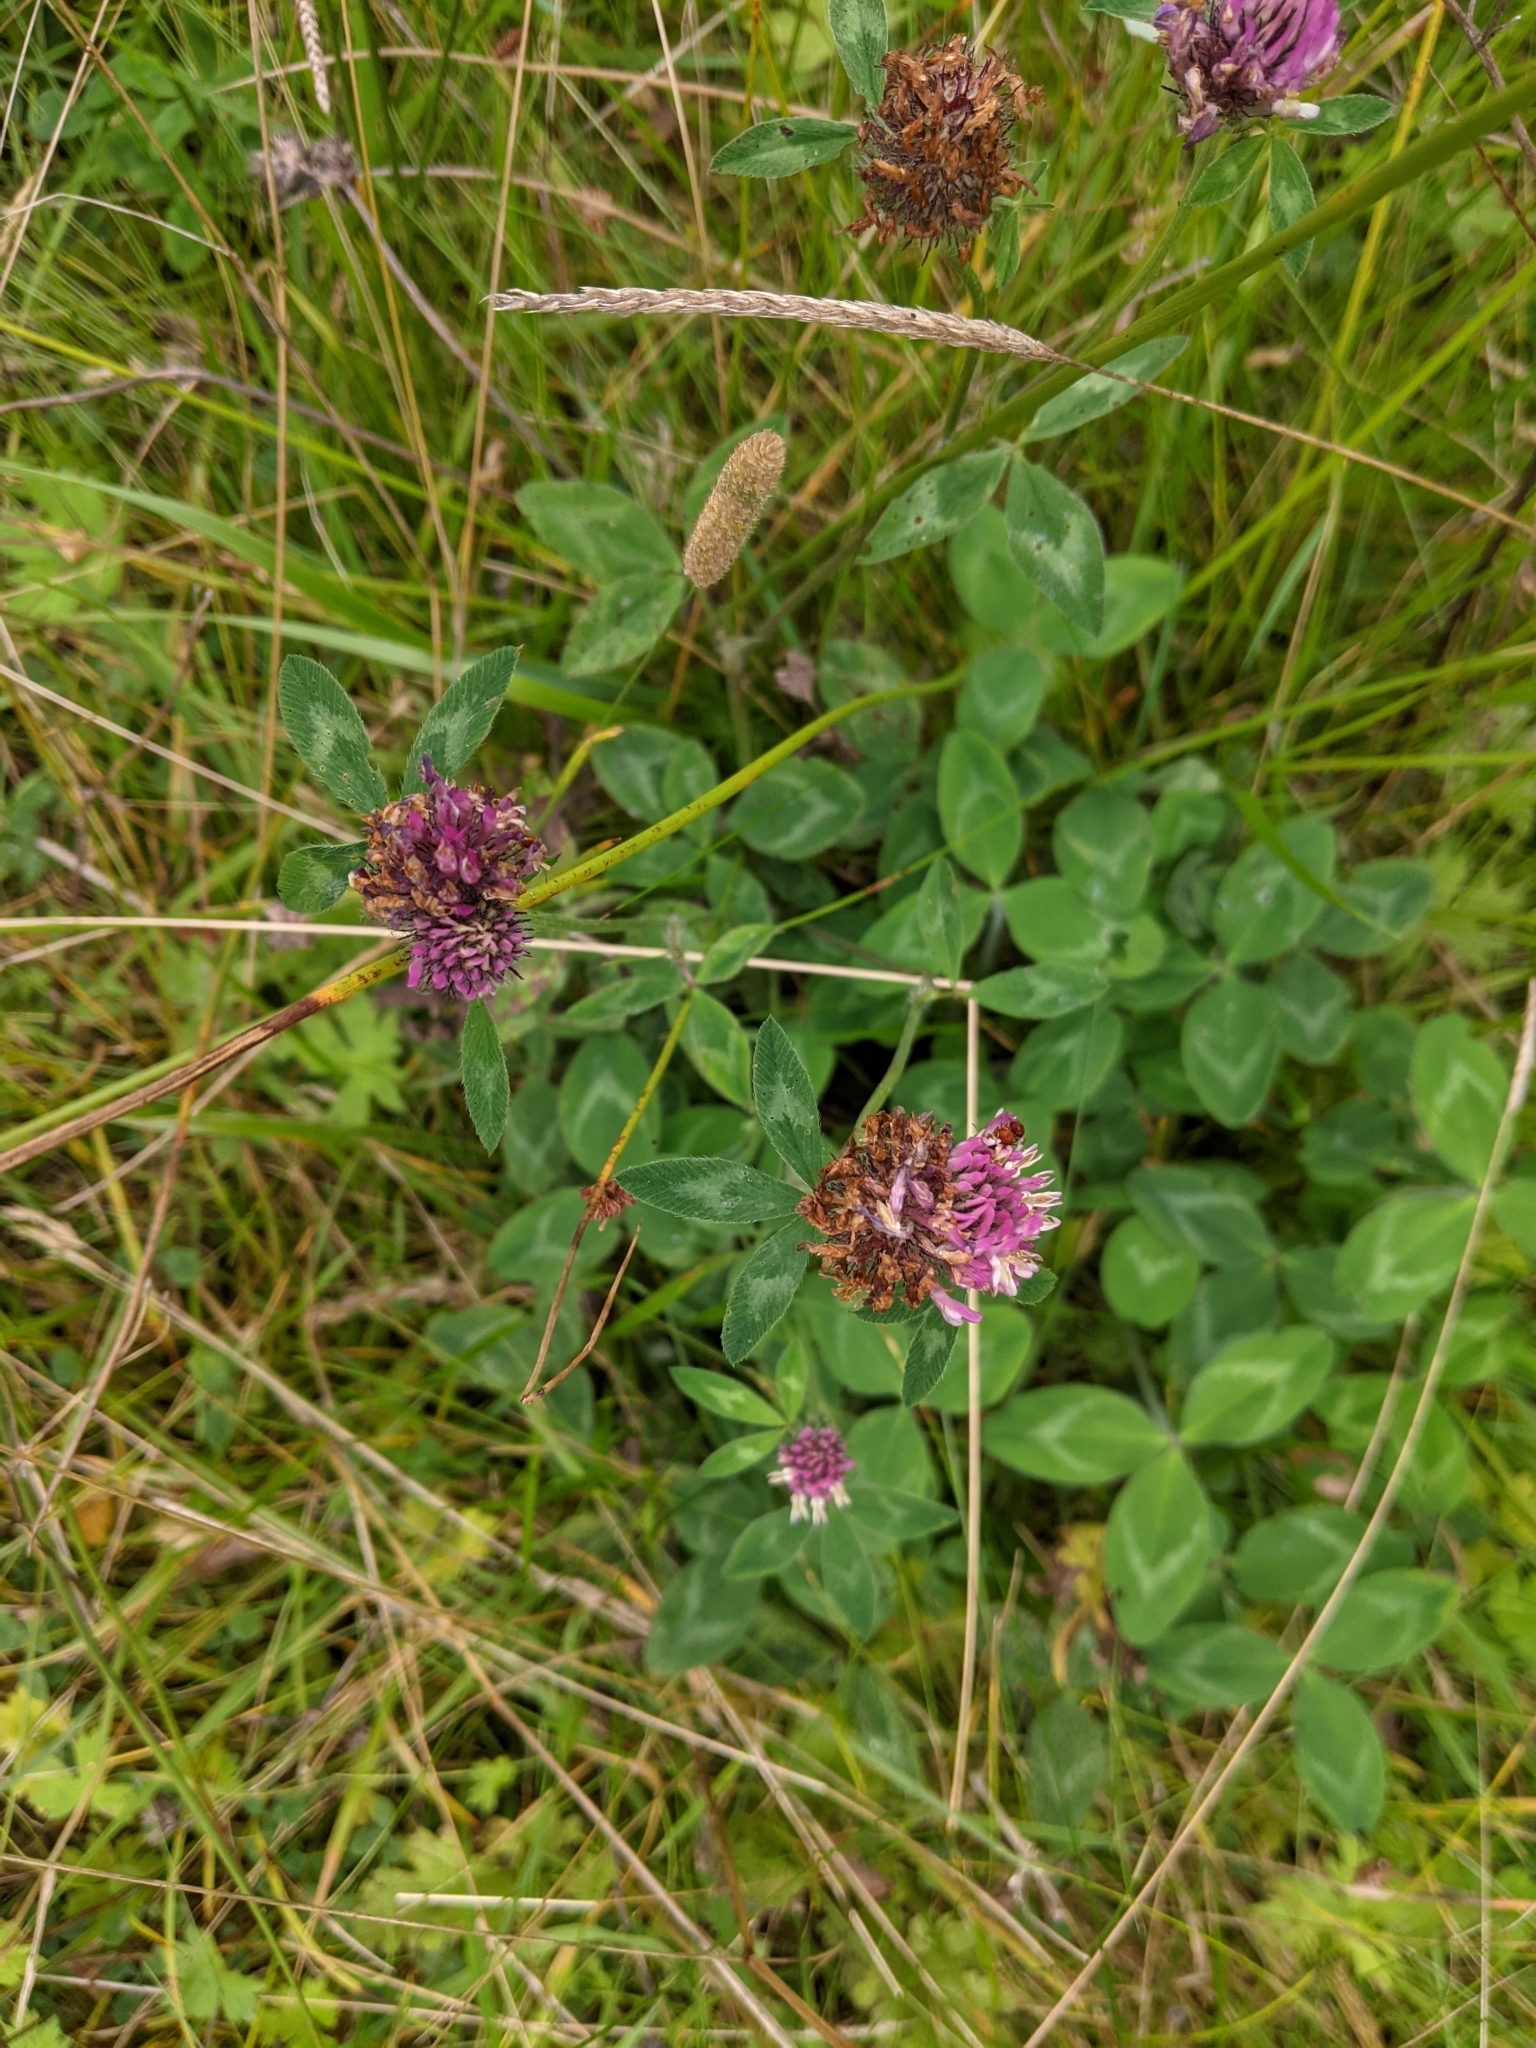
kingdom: Plantae
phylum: Tracheophyta
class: Magnoliopsida
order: Fabales
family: Fabaceae
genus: Trifolium
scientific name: Trifolium pratense
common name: Red clover
